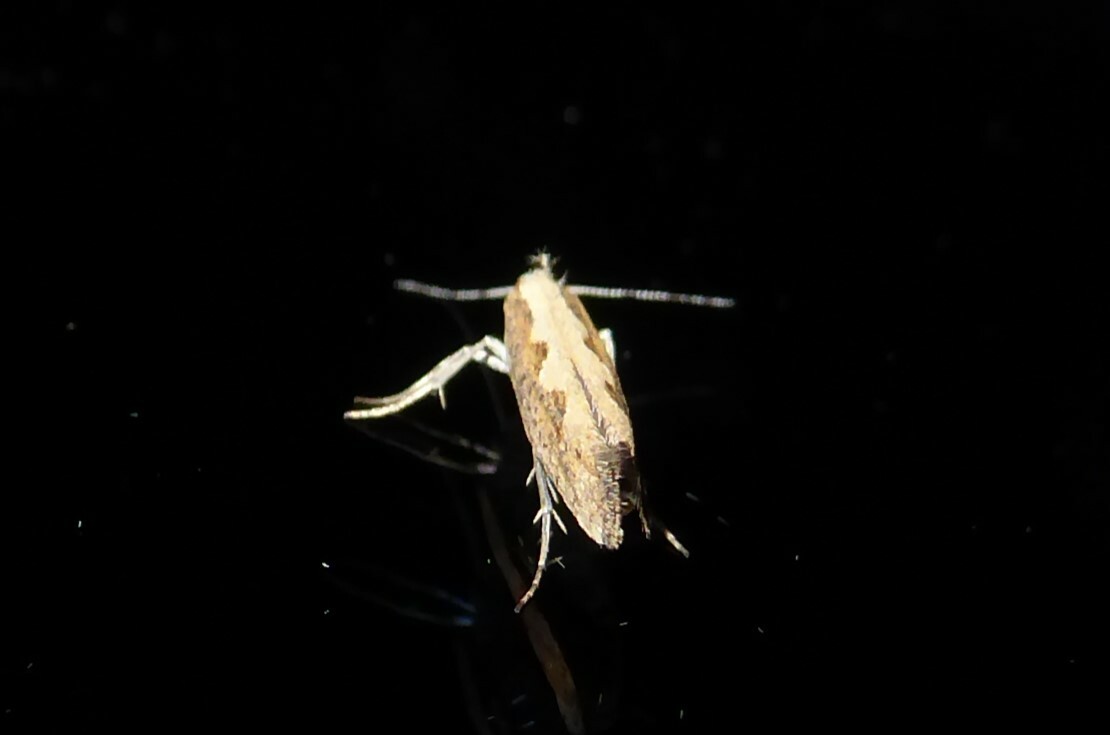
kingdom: Animalia
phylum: Arthropoda
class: Insecta
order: Lepidoptera
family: Plutellidae
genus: Plutella
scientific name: Plutella xylostella
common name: Diamond-back moth
